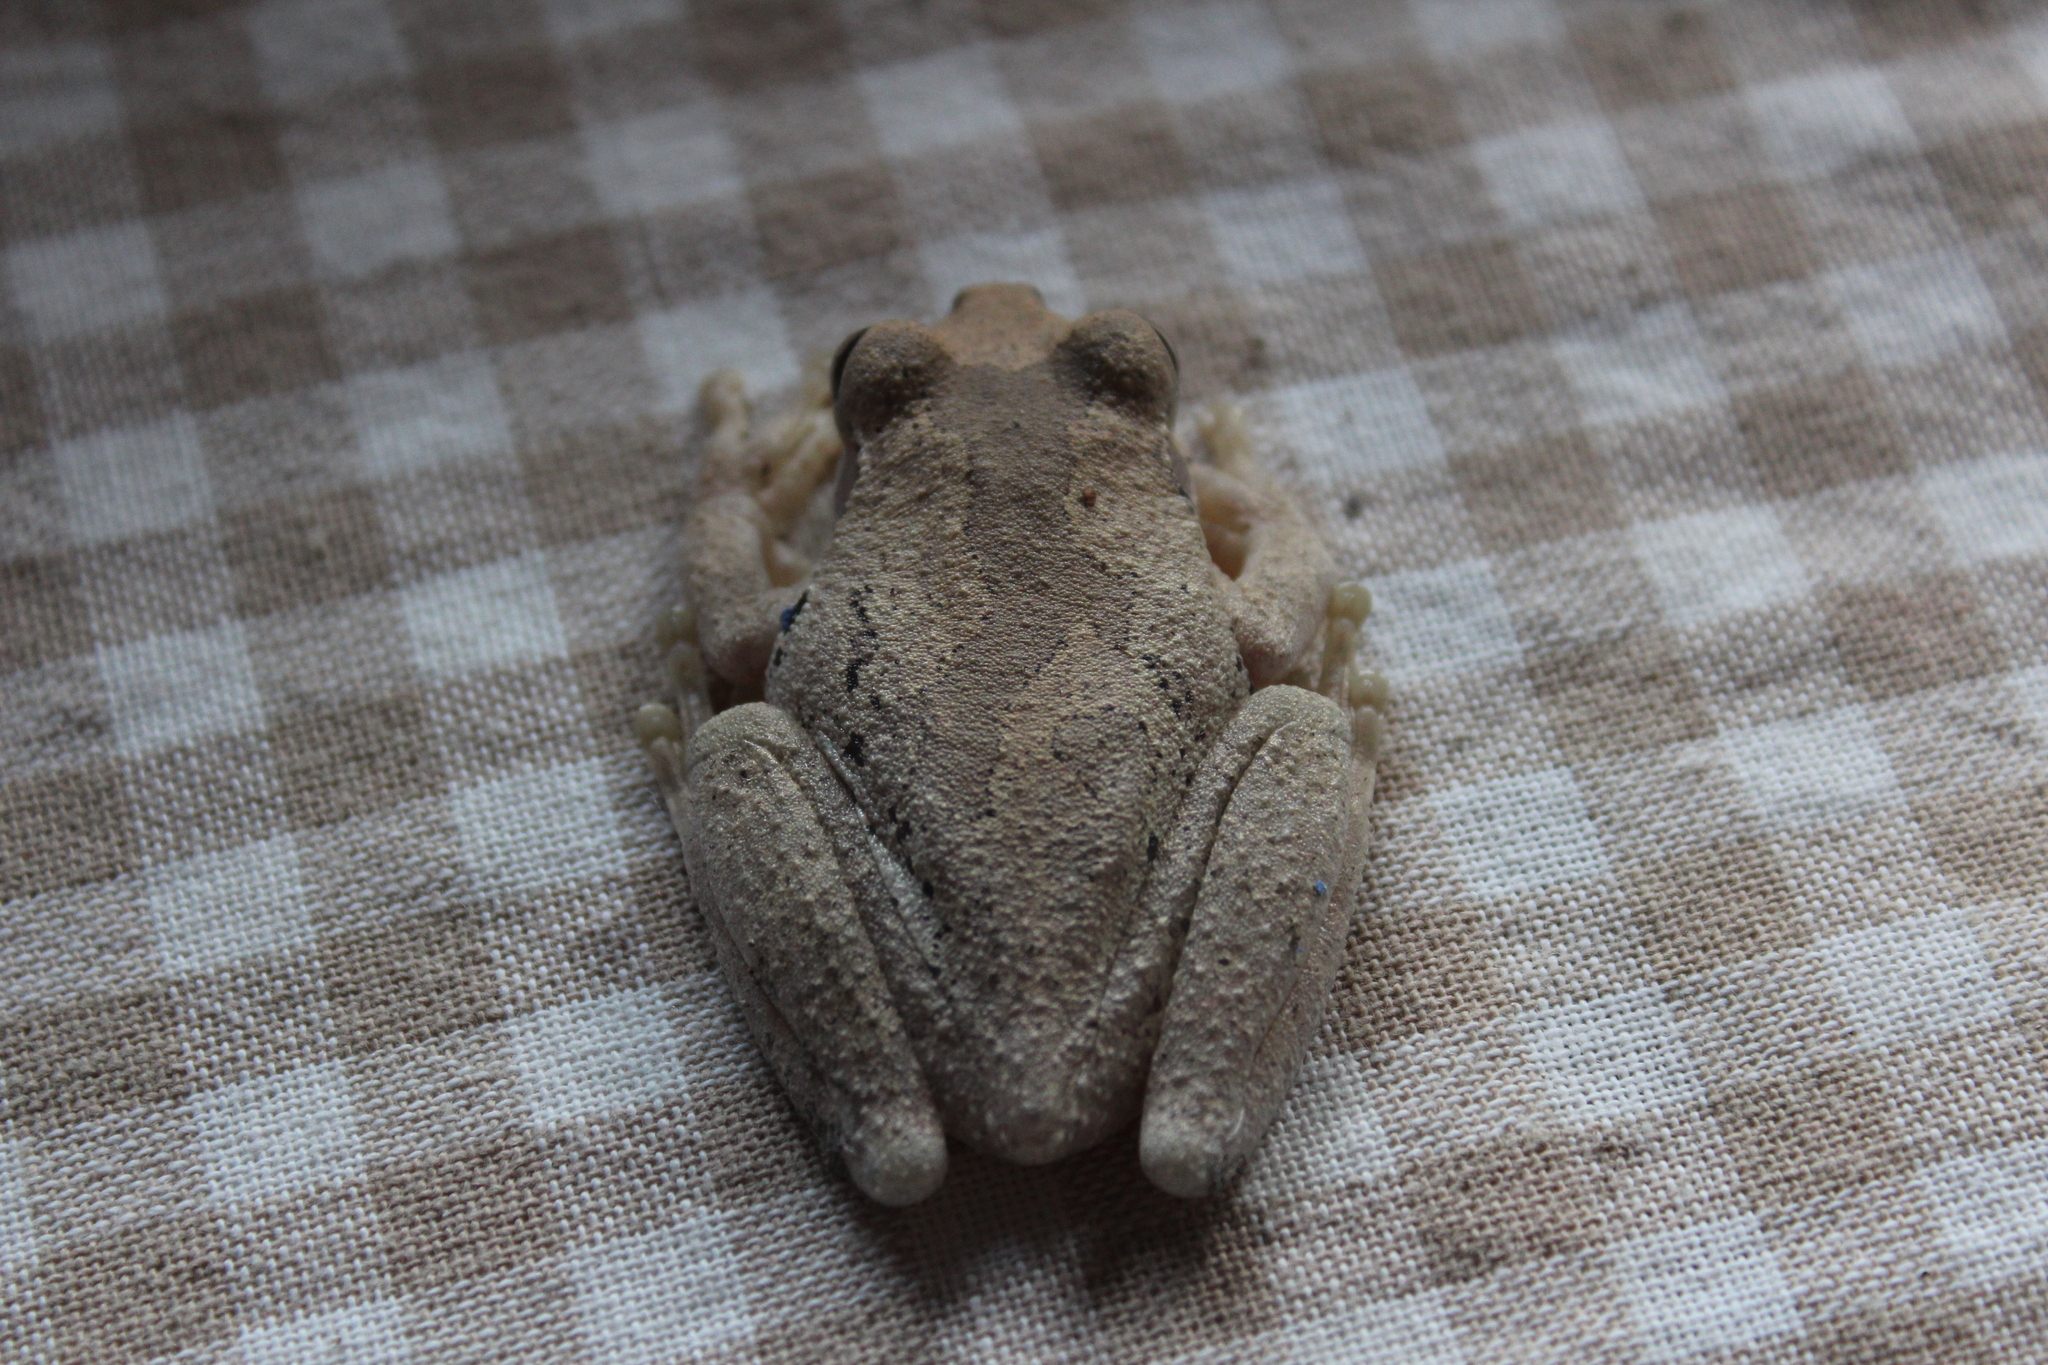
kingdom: Animalia
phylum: Chordata
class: Amphibia
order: Anura
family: Hylidae
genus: Smilisca
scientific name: Smilisca baudinii
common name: Mexican smilisca
